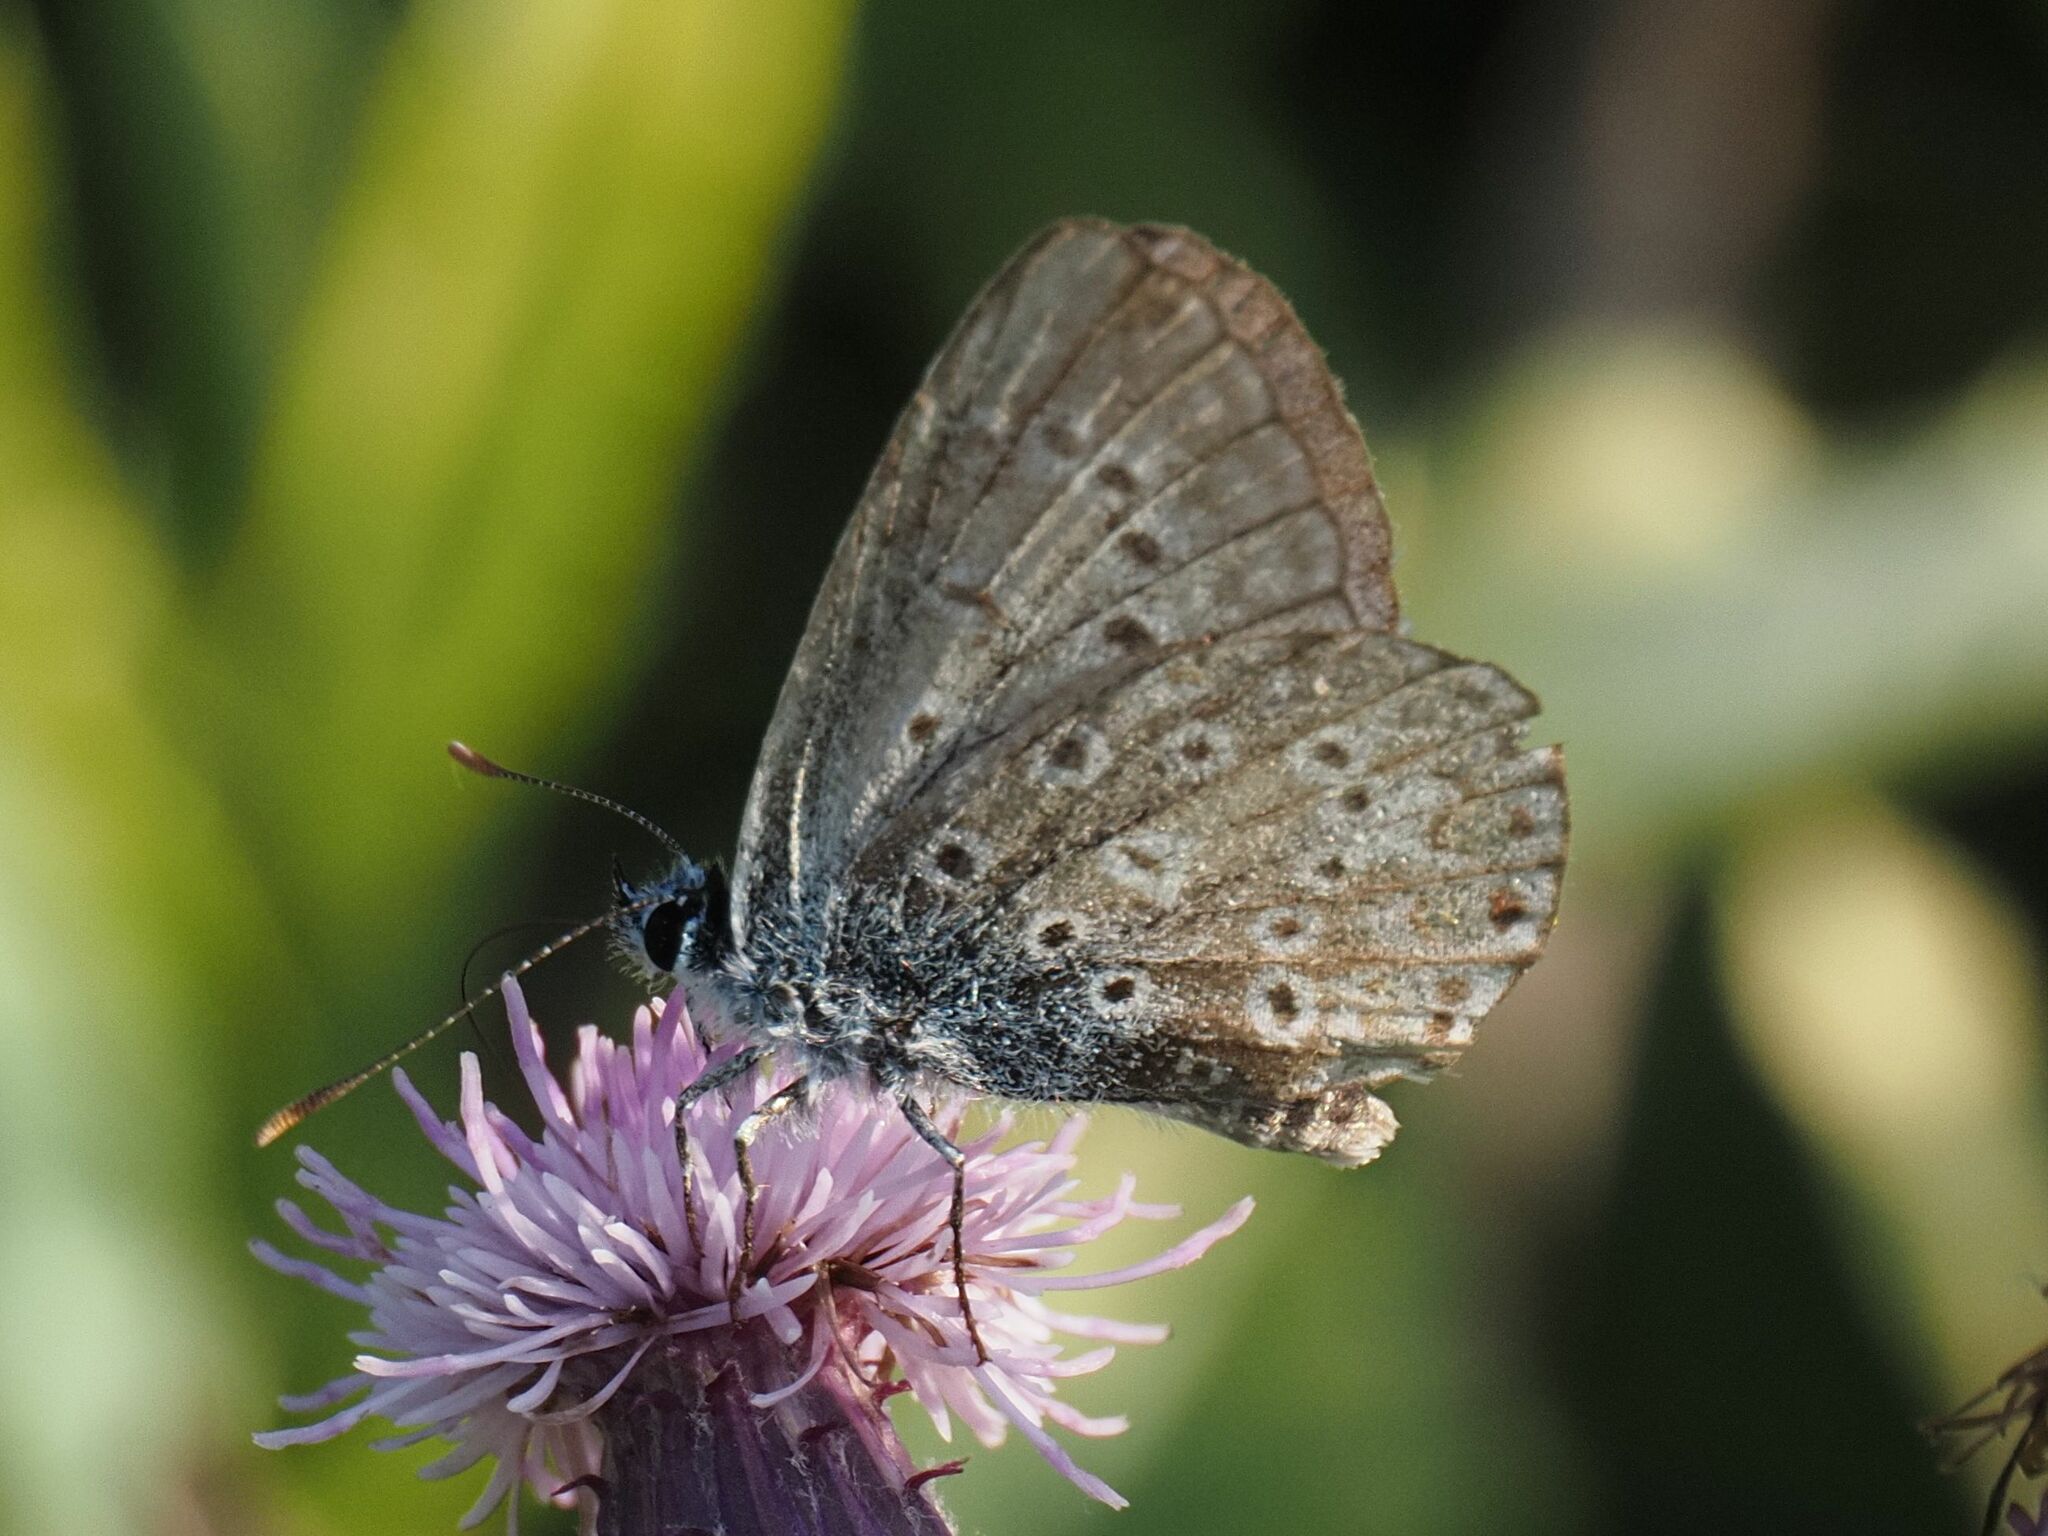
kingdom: Animalia
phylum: Arthropoda
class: Insecta
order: Lepidoptera
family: Lycaenidae
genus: Polyommatus
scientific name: Polyommatus icarus
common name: Common blue
